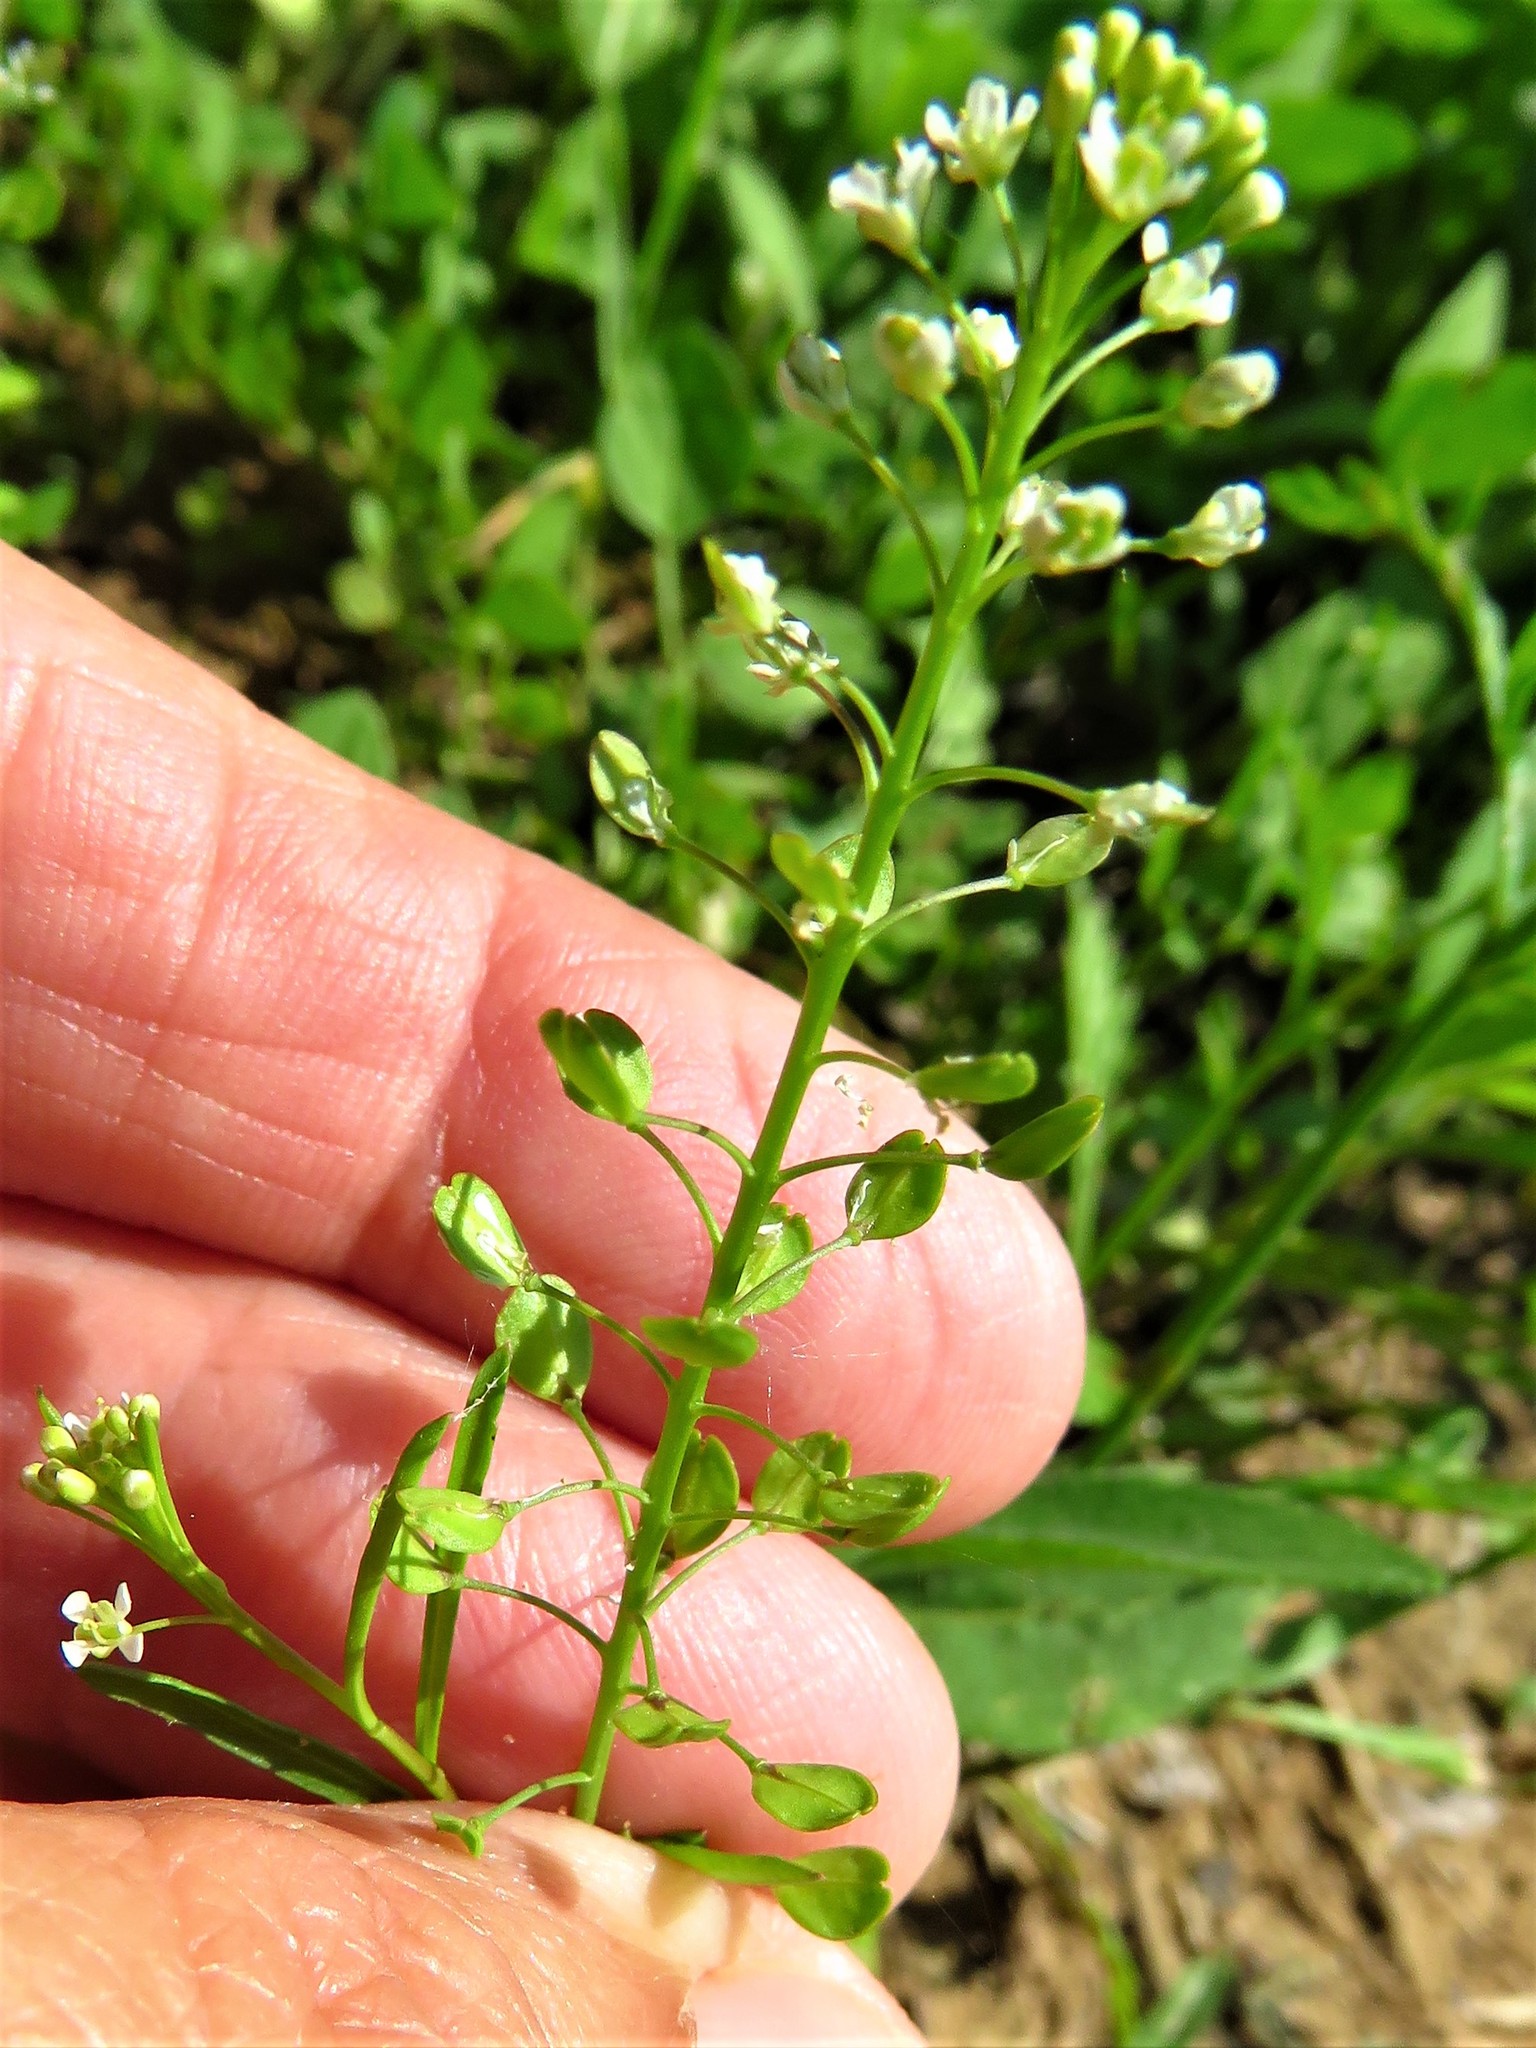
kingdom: Plantae
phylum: Tracheophyta
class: Magnoliopsida
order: Brassicales
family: Brassicaceae
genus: Lepidium
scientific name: Lepidium virginicum
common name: Least pepperwort
